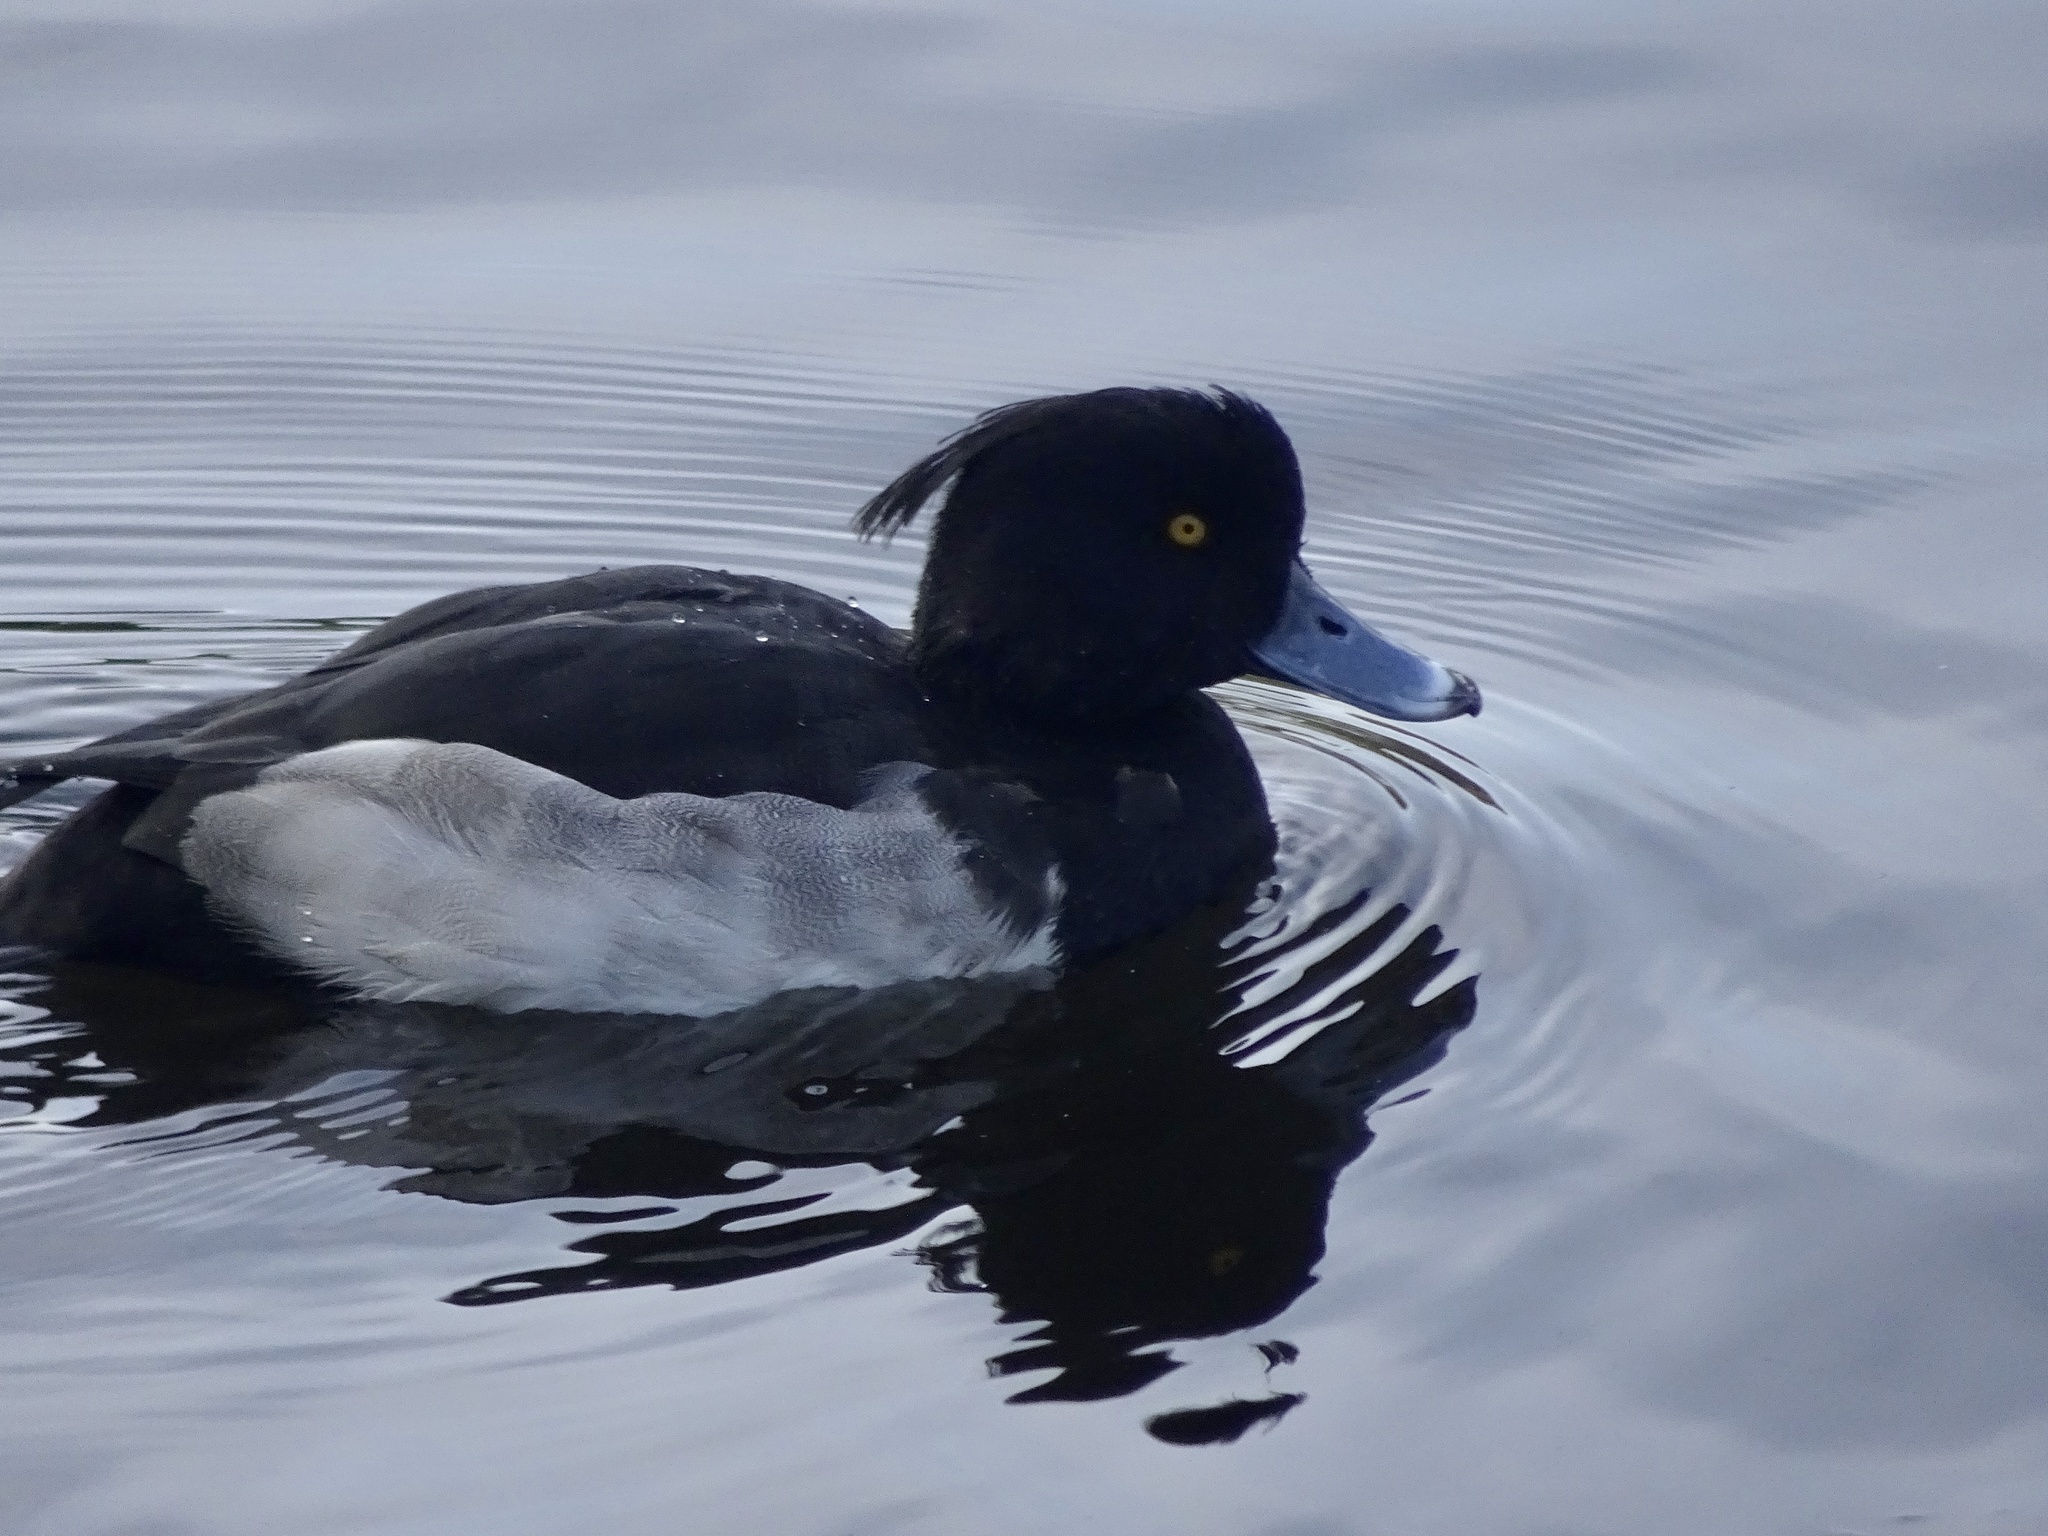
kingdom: Animalia
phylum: Chordata
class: Aves
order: Anseriformes
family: Anatidae
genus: Aythya
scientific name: Aythya fuligula
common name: Tufted duck
